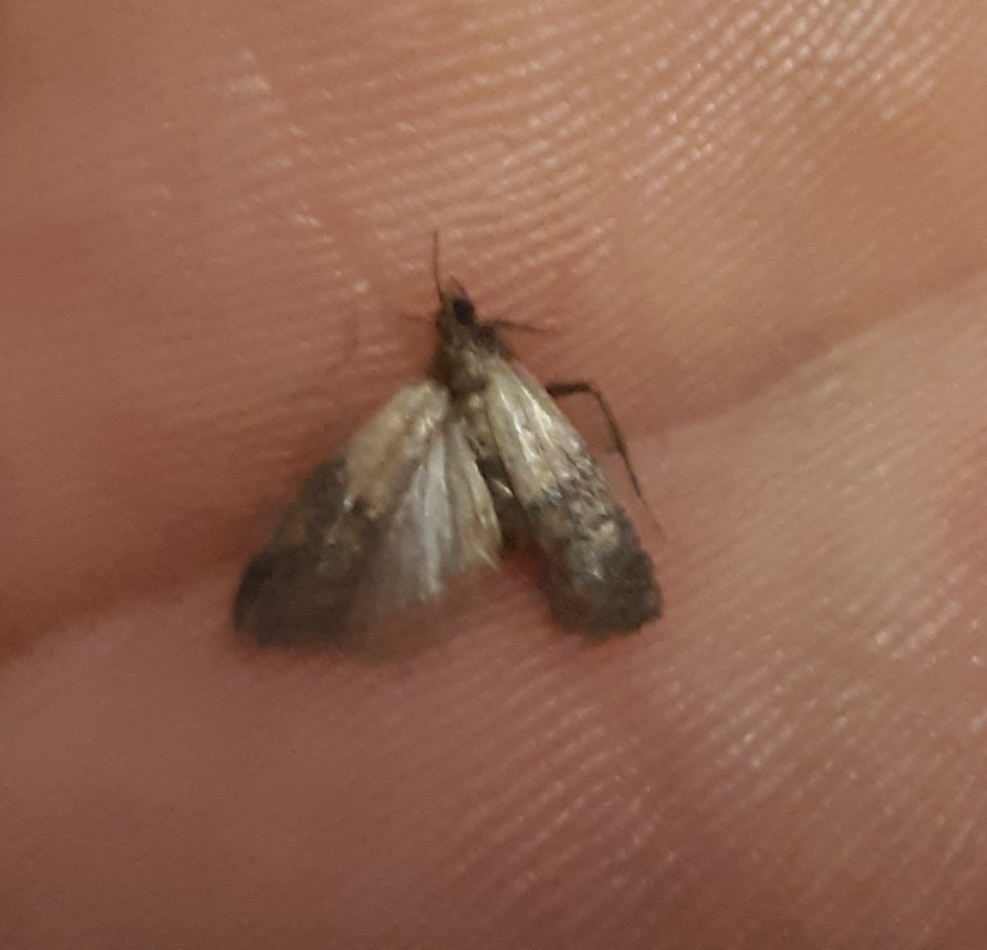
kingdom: Animalia
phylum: Arthropoda
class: Insecta
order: Lepidoptera
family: Pyralidae
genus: Plodia
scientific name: Plodia interpunctella
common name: Indian meal moth
